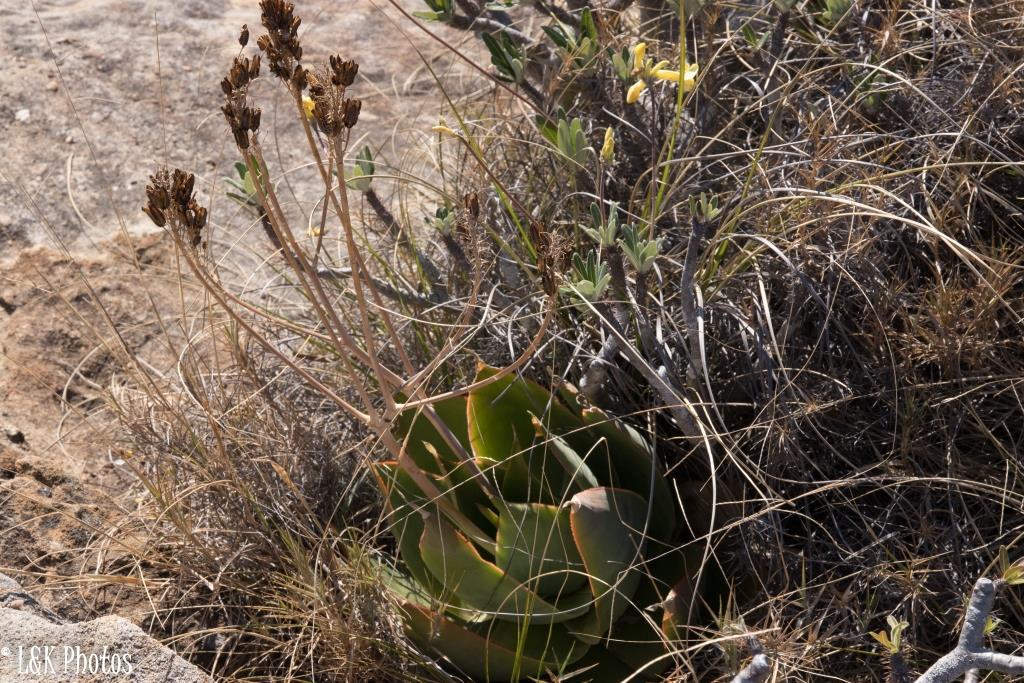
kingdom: Plantae
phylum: Tracheophyta
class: Liliopsida
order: Asparagales
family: Asphodelaceae
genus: Aloe
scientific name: Aloe imalotensis
